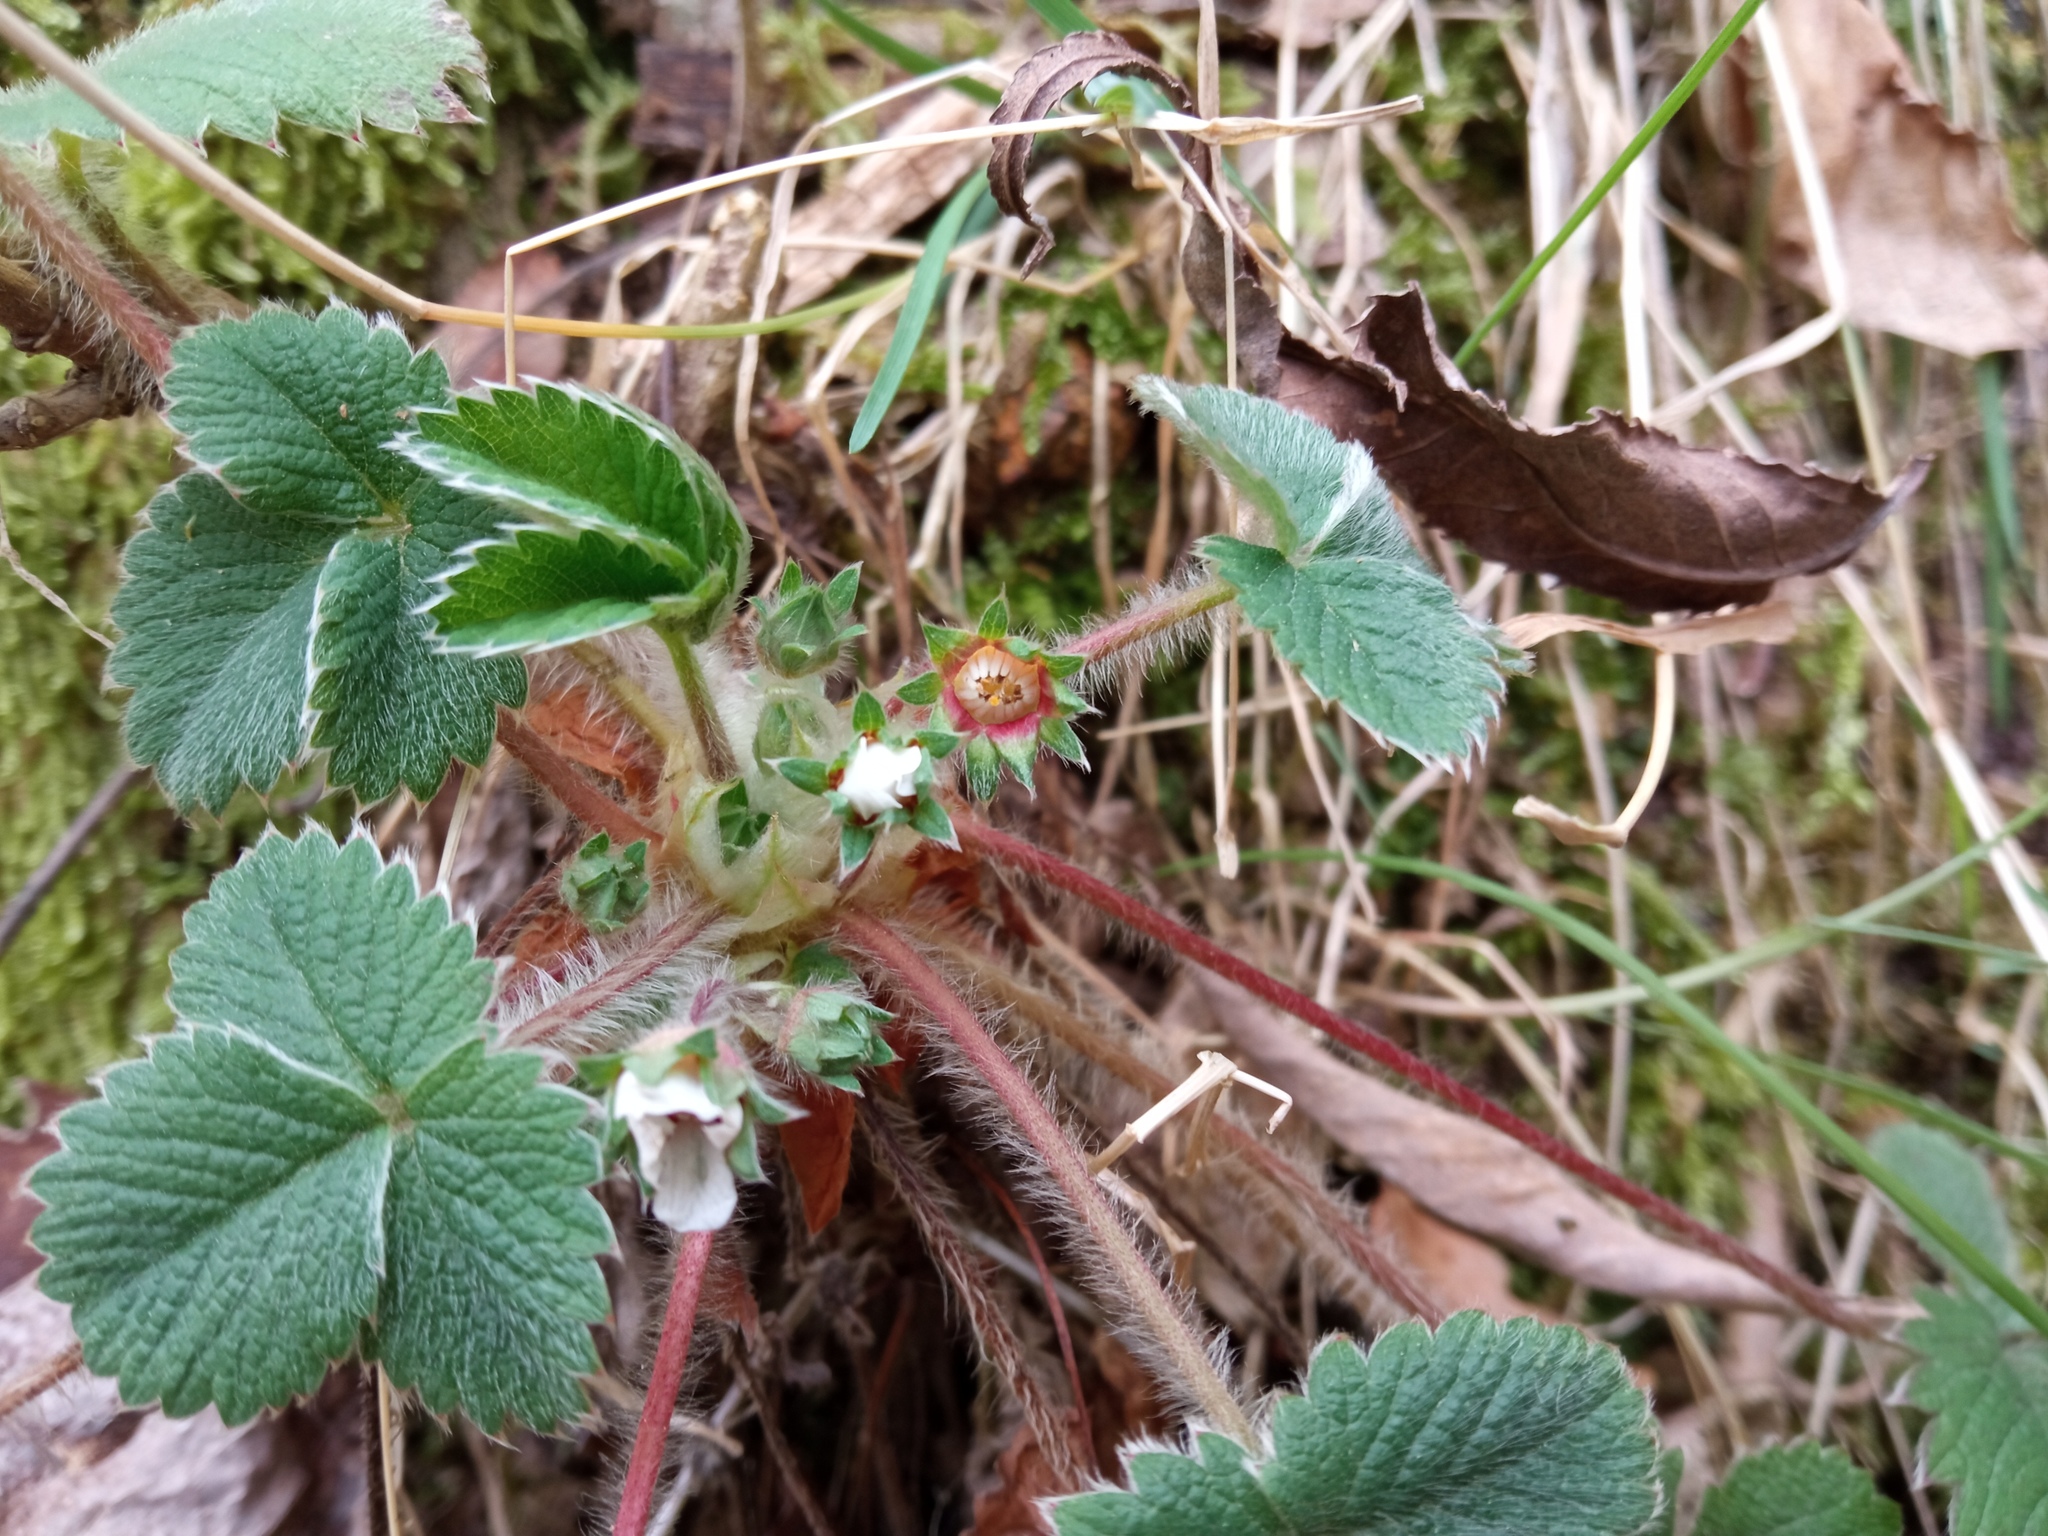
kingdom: Plantae
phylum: Tracheophyta
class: Magnoliopsida
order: Rosales
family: Rosaceae
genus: Potentilla
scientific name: Potentilla micrantha
